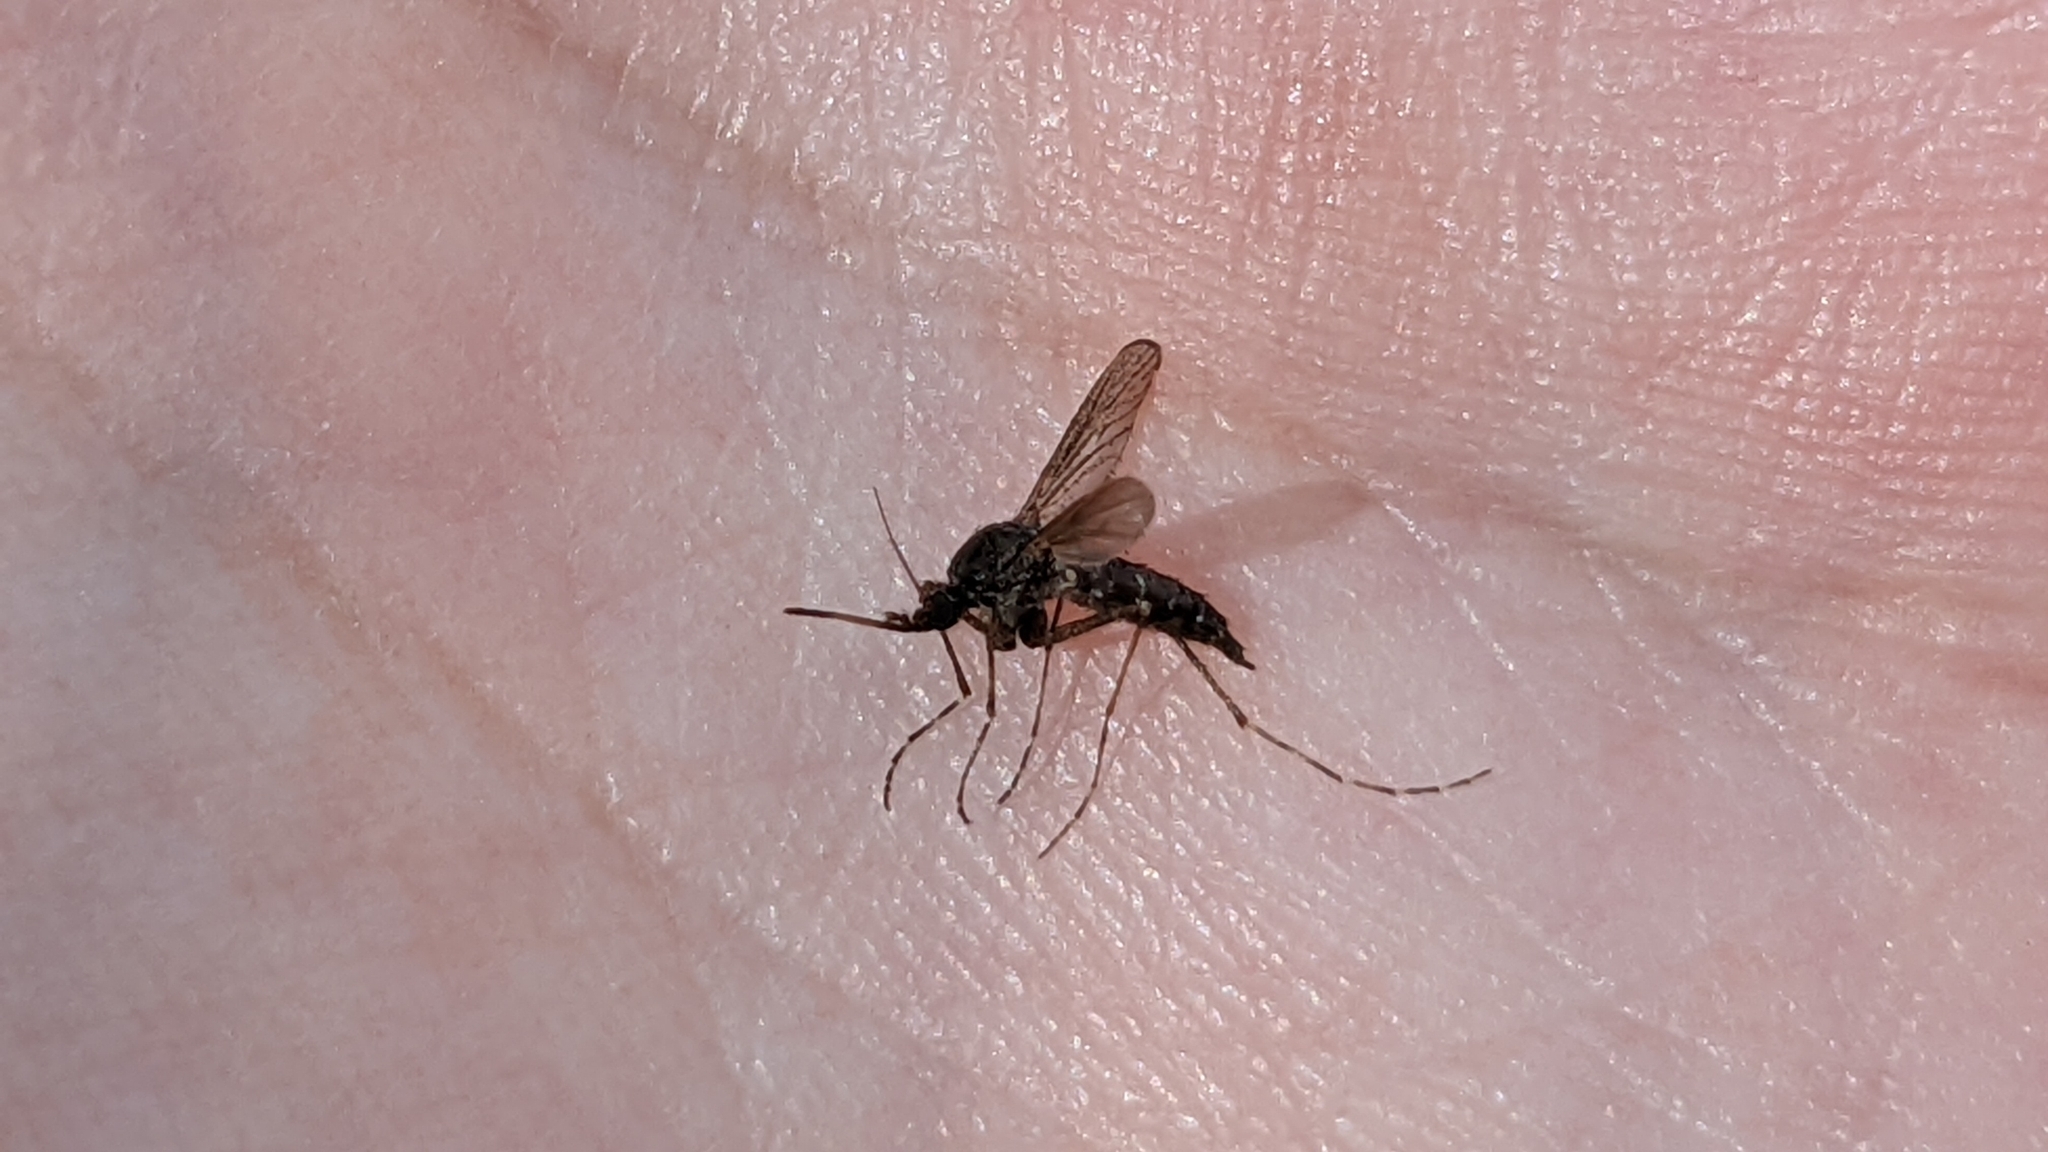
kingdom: Animalia
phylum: Arthropoda
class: Insecta
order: Diptera
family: Culicidae
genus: Psorophora
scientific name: Psorophora columbiae
